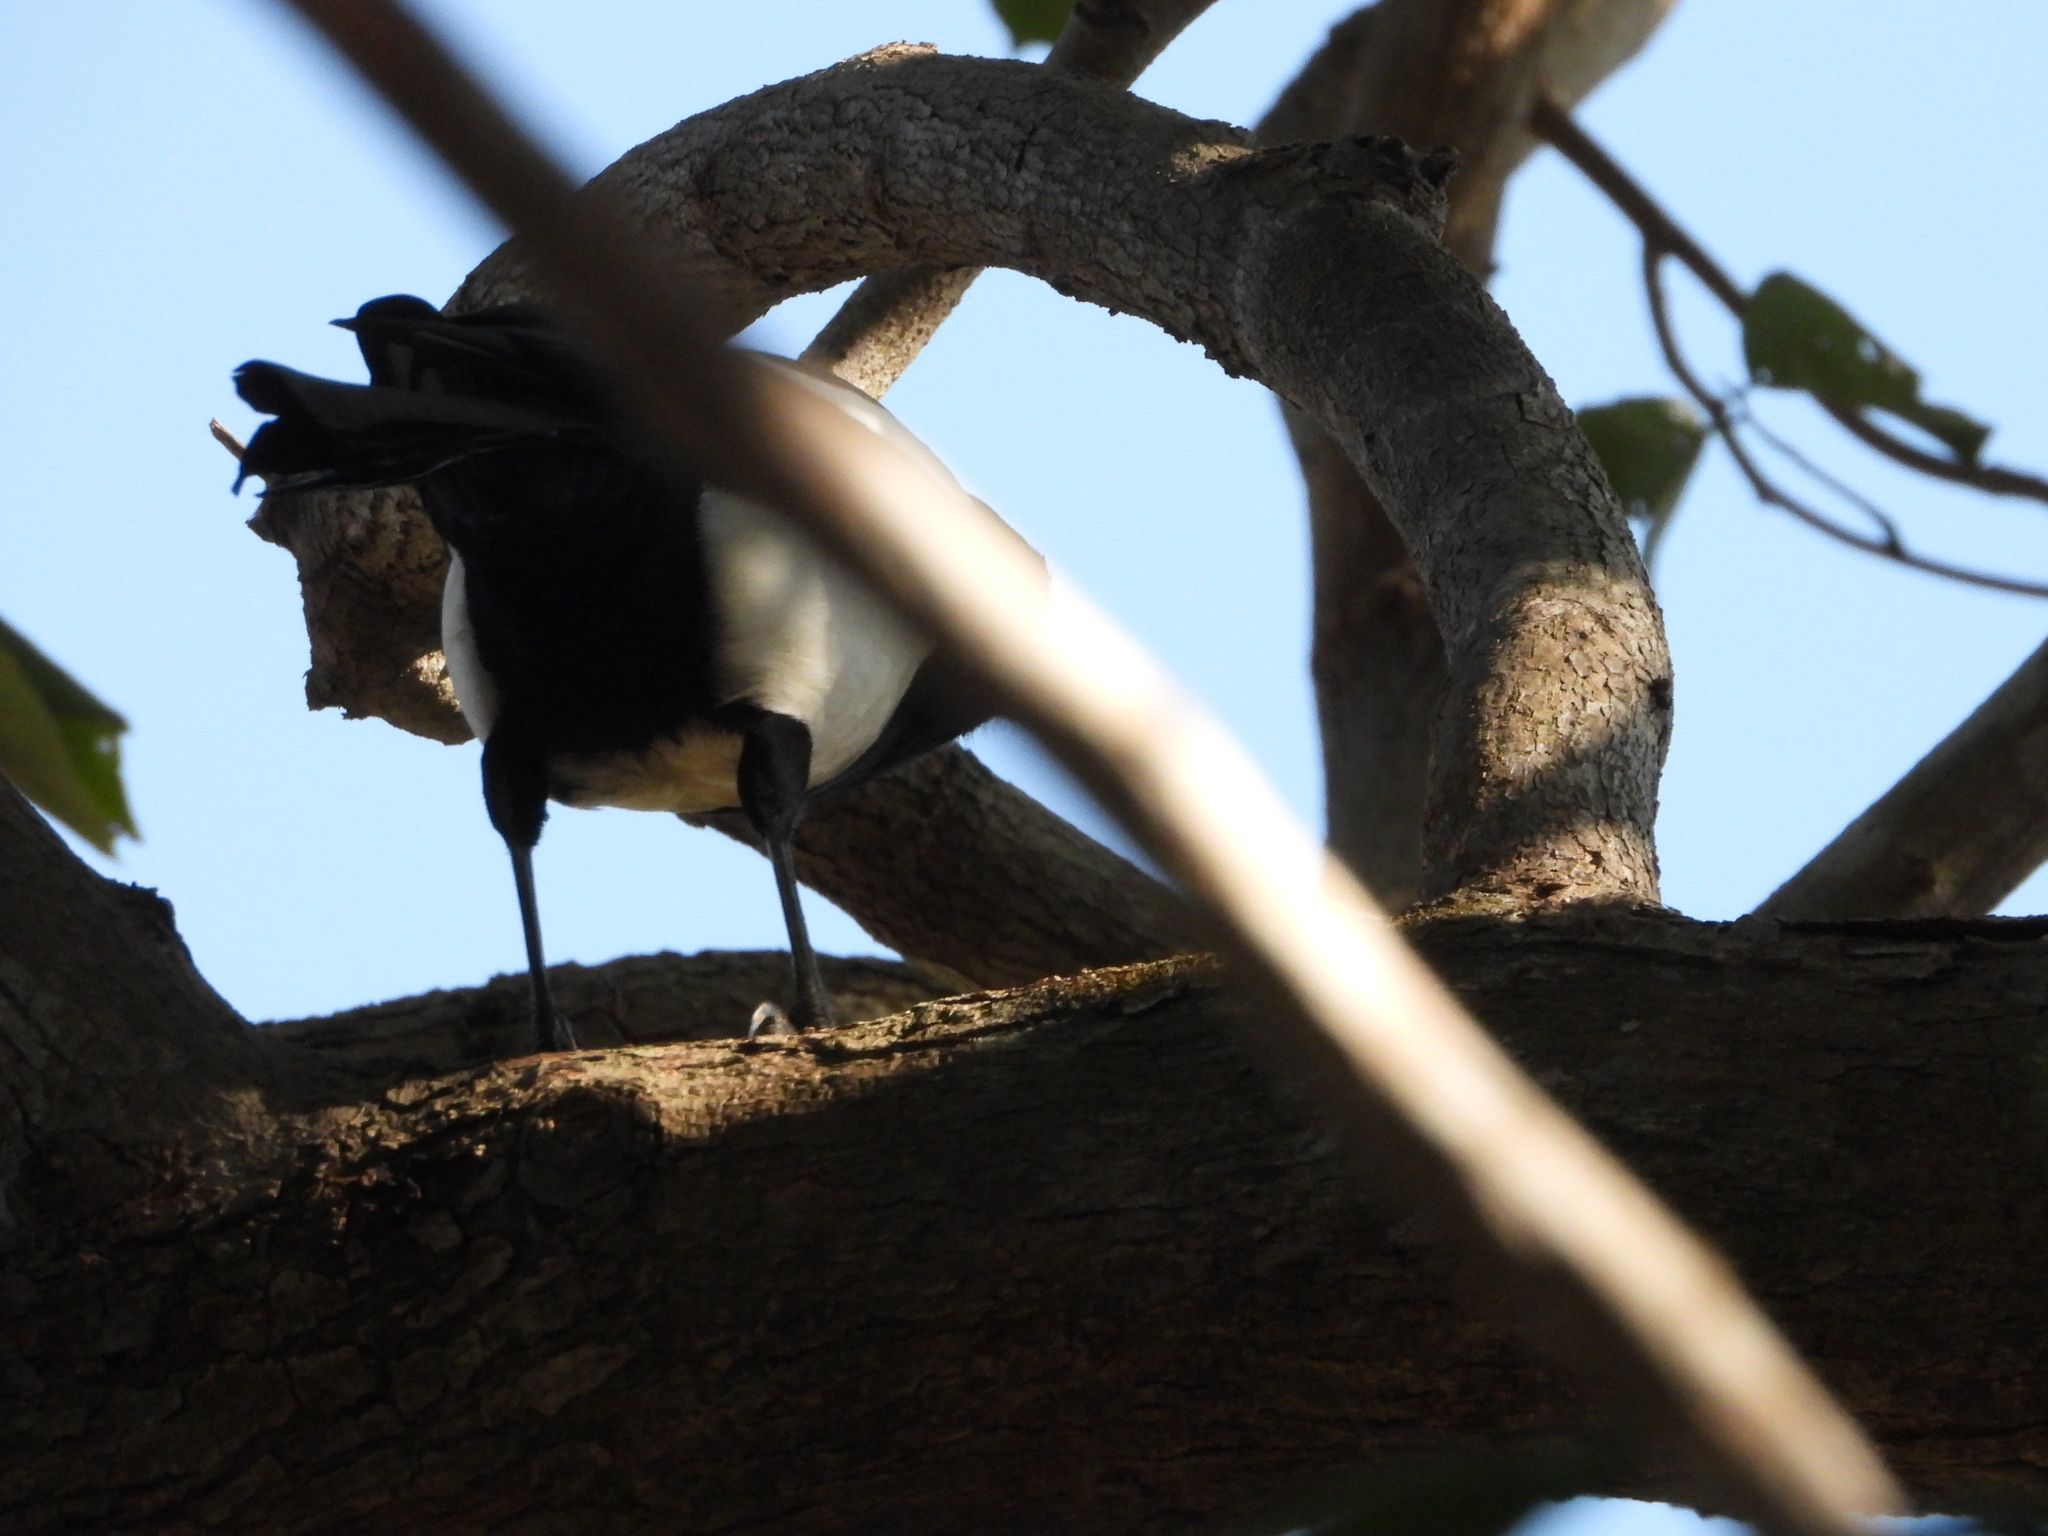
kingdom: Animalia
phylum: Chordata
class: Aves
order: Passeriformes
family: Corvidae
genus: Pica
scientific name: Pica serica
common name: Oriental magpie
